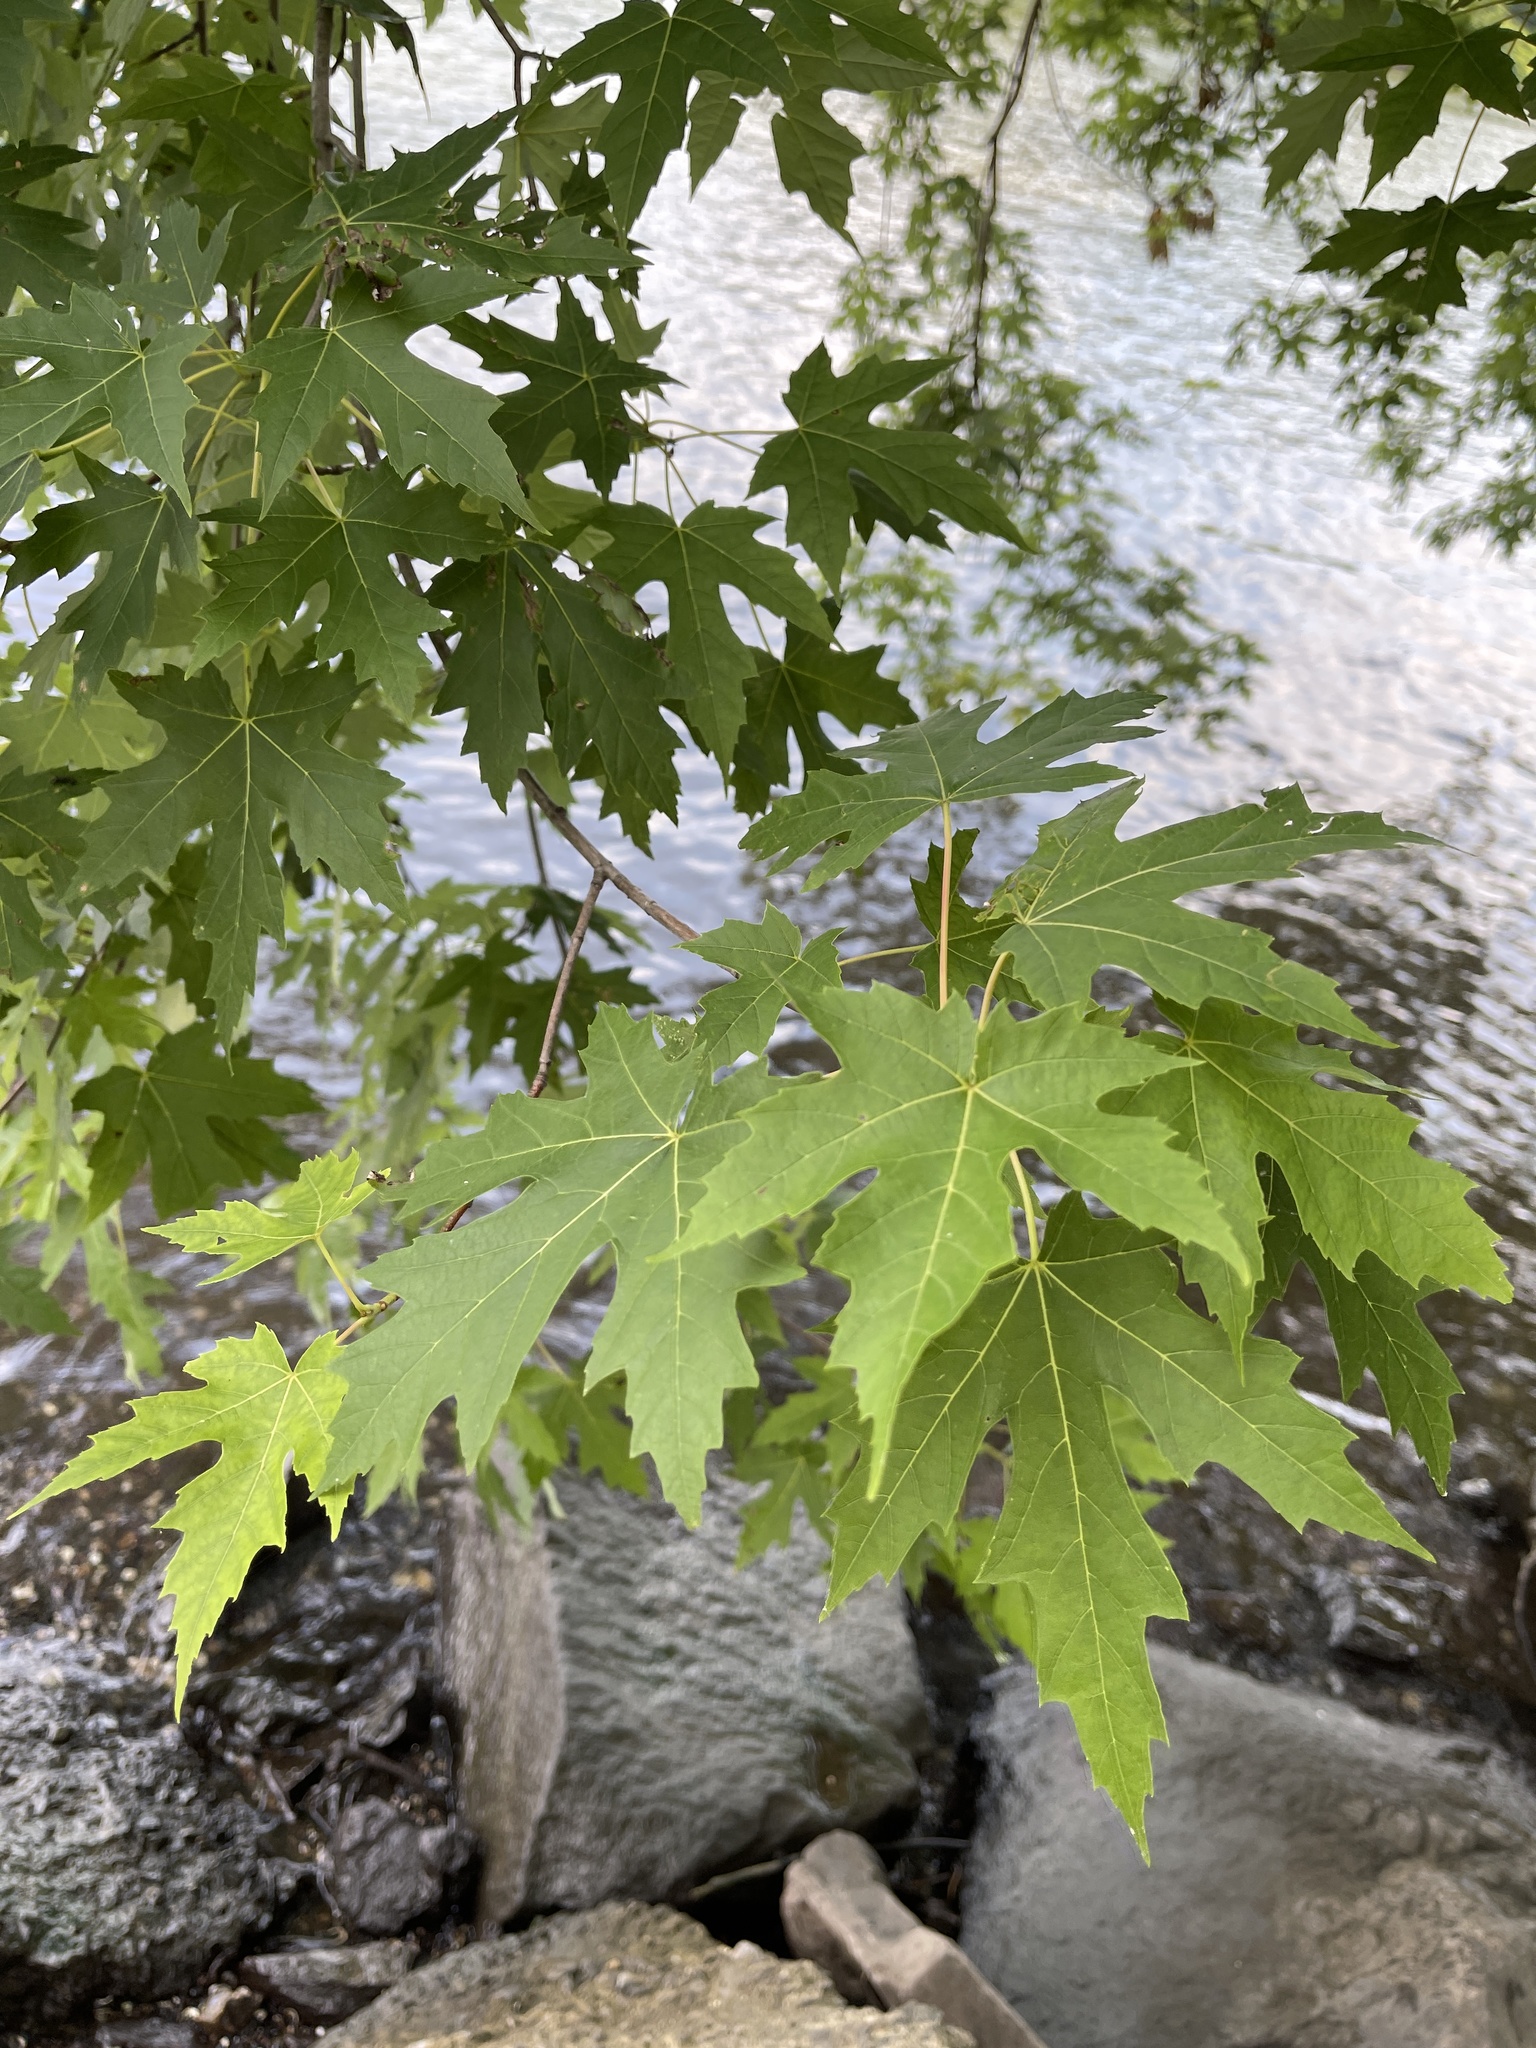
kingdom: Plantae
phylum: Tracheophyta
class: Magnoliopsida
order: Sapindales
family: Sapindaceae
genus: Acer
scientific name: Acer saccharinum
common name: Silver maple
